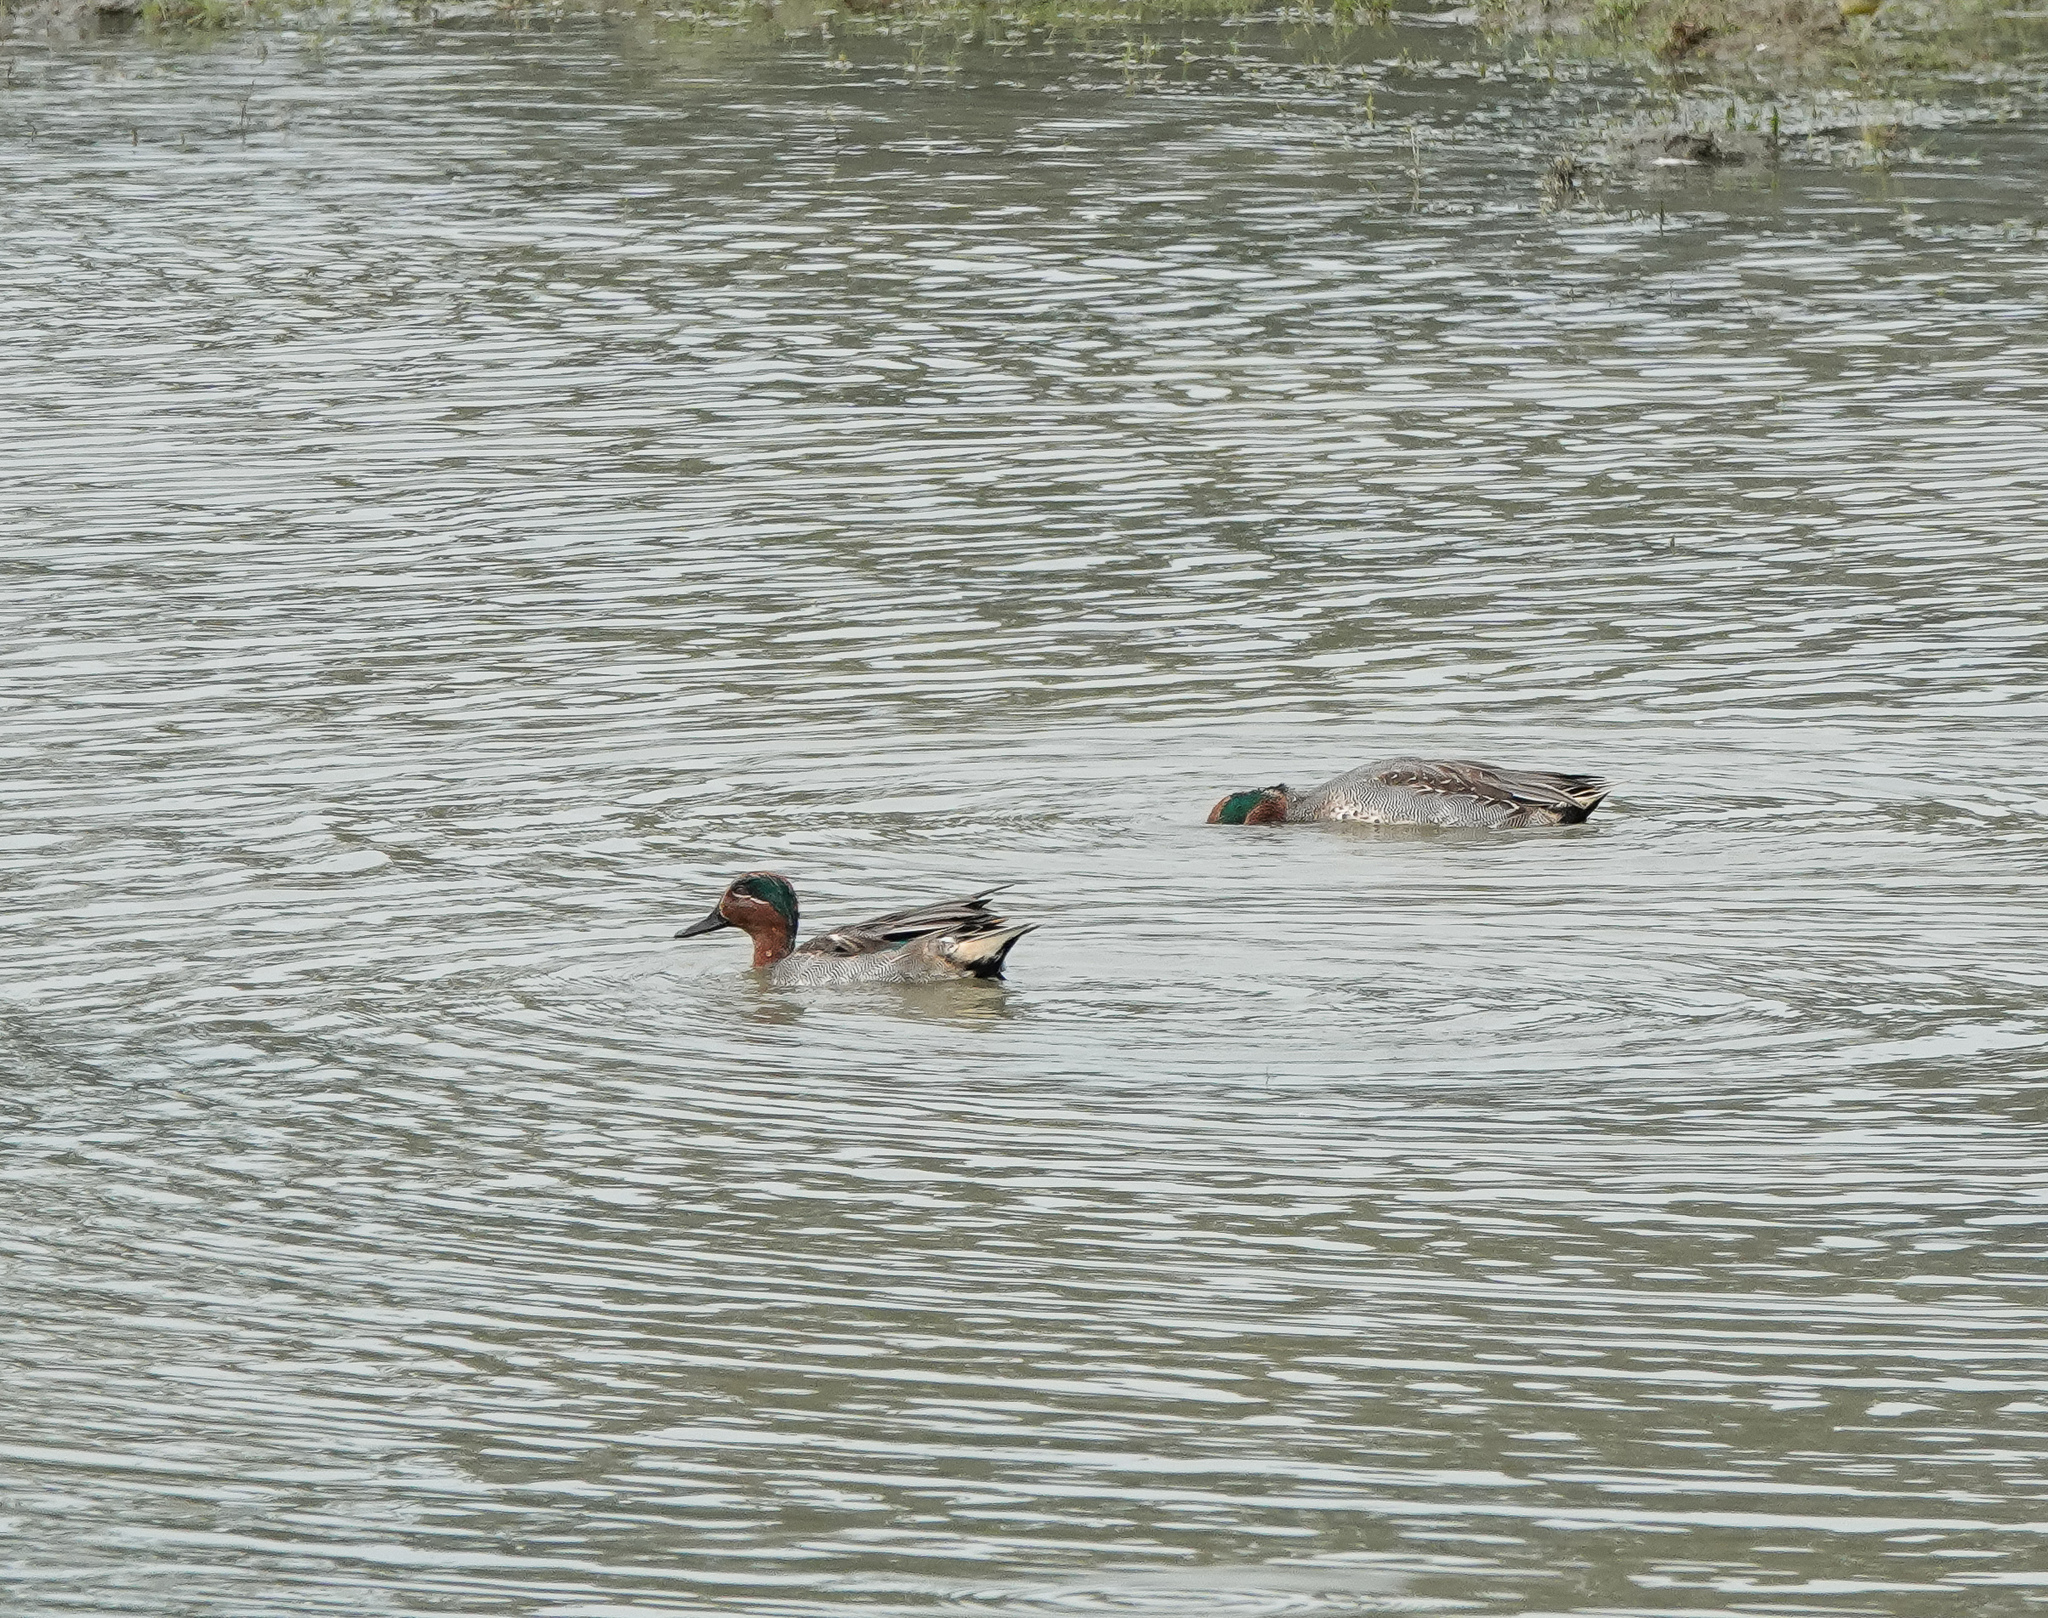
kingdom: Animalia
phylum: Chordata
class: Aves
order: Anseriformes
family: Anatidae
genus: Anas
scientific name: Anas crecca
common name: Eurasian teal
